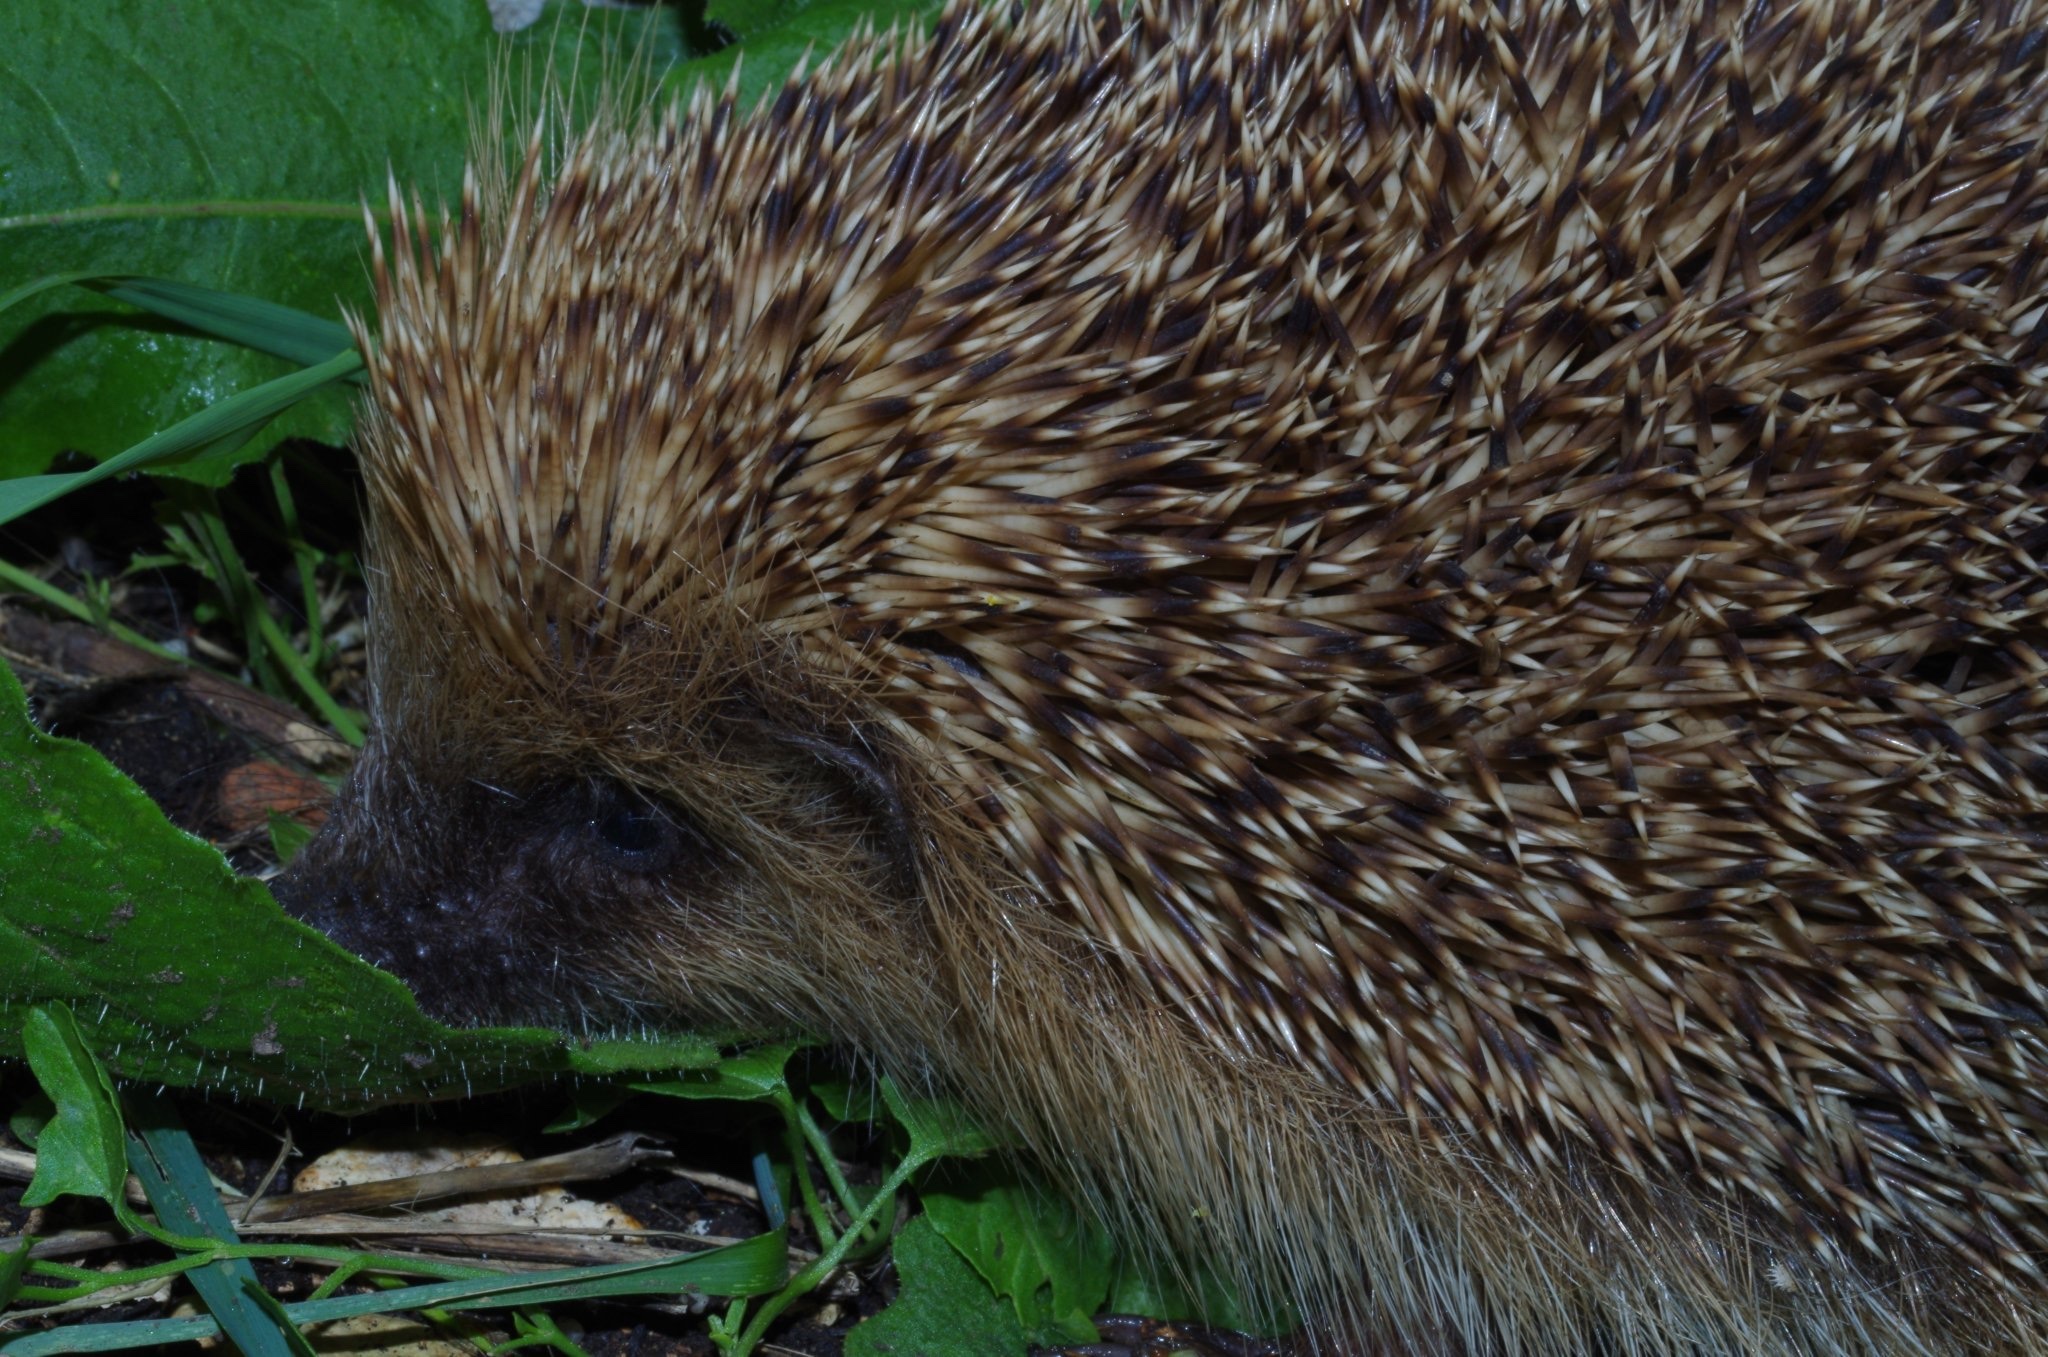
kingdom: Animalia
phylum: Chordata
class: Mammalia
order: Erinaceomorpha
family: Erinaceidae
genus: Erinaceus
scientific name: Erinaceus europaeus
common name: West european hedgehog
